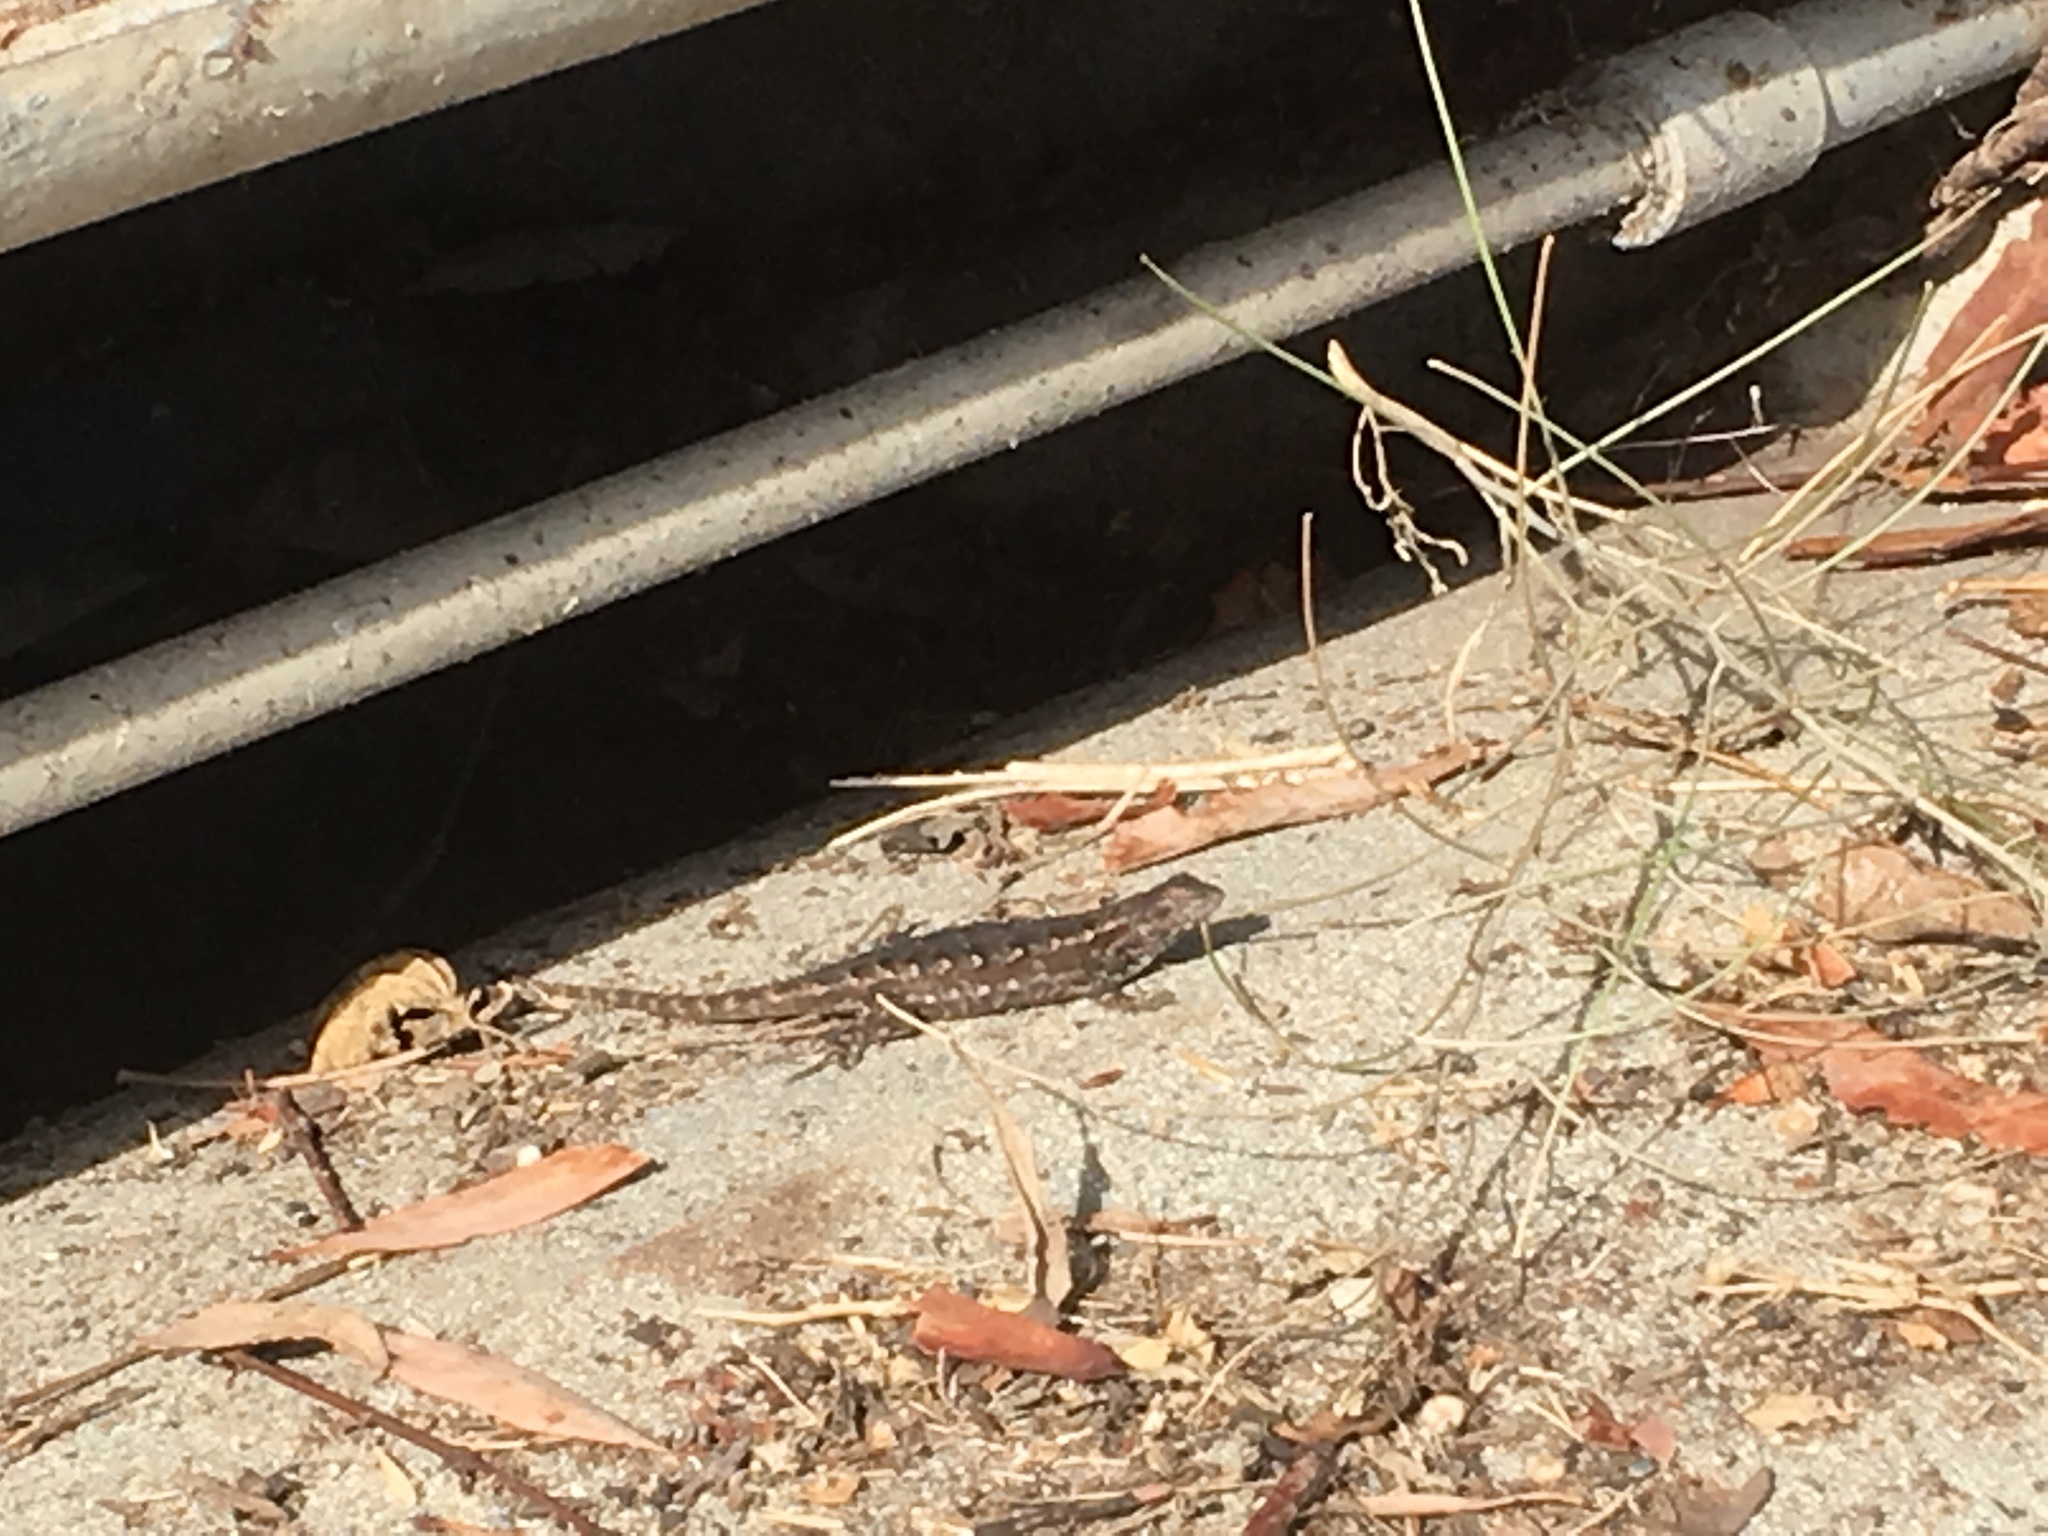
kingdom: Animalia
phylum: Chordata
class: Squamata
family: Phrynosomatidae
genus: Sceloporus
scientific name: Sceloporus occidentalis
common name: Western fence lizard
